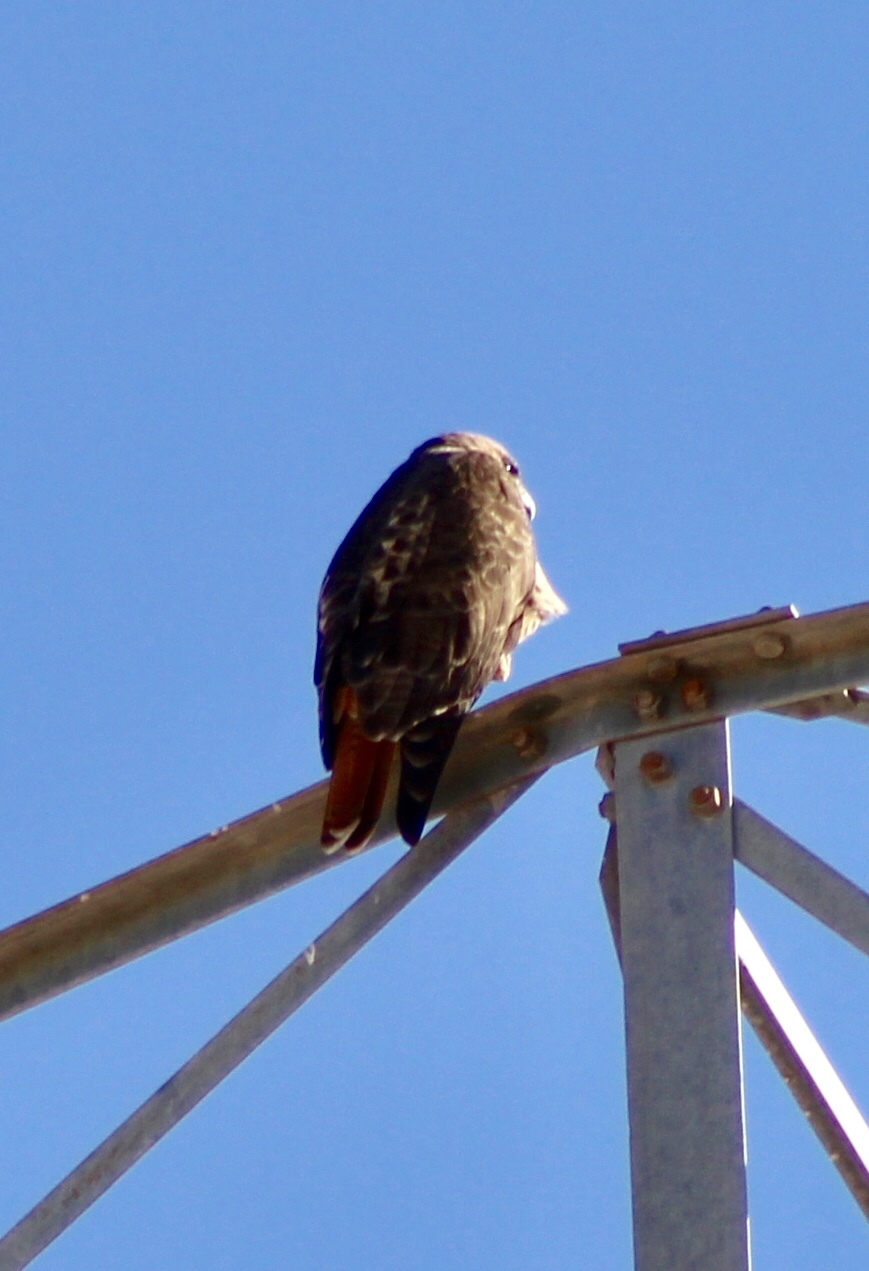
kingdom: Animalia
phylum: Chordata
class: Aves
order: Accipitriformes
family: Accipitridae
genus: Buteo
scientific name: Buteo jamaicensis
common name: Red-tailed hawk
